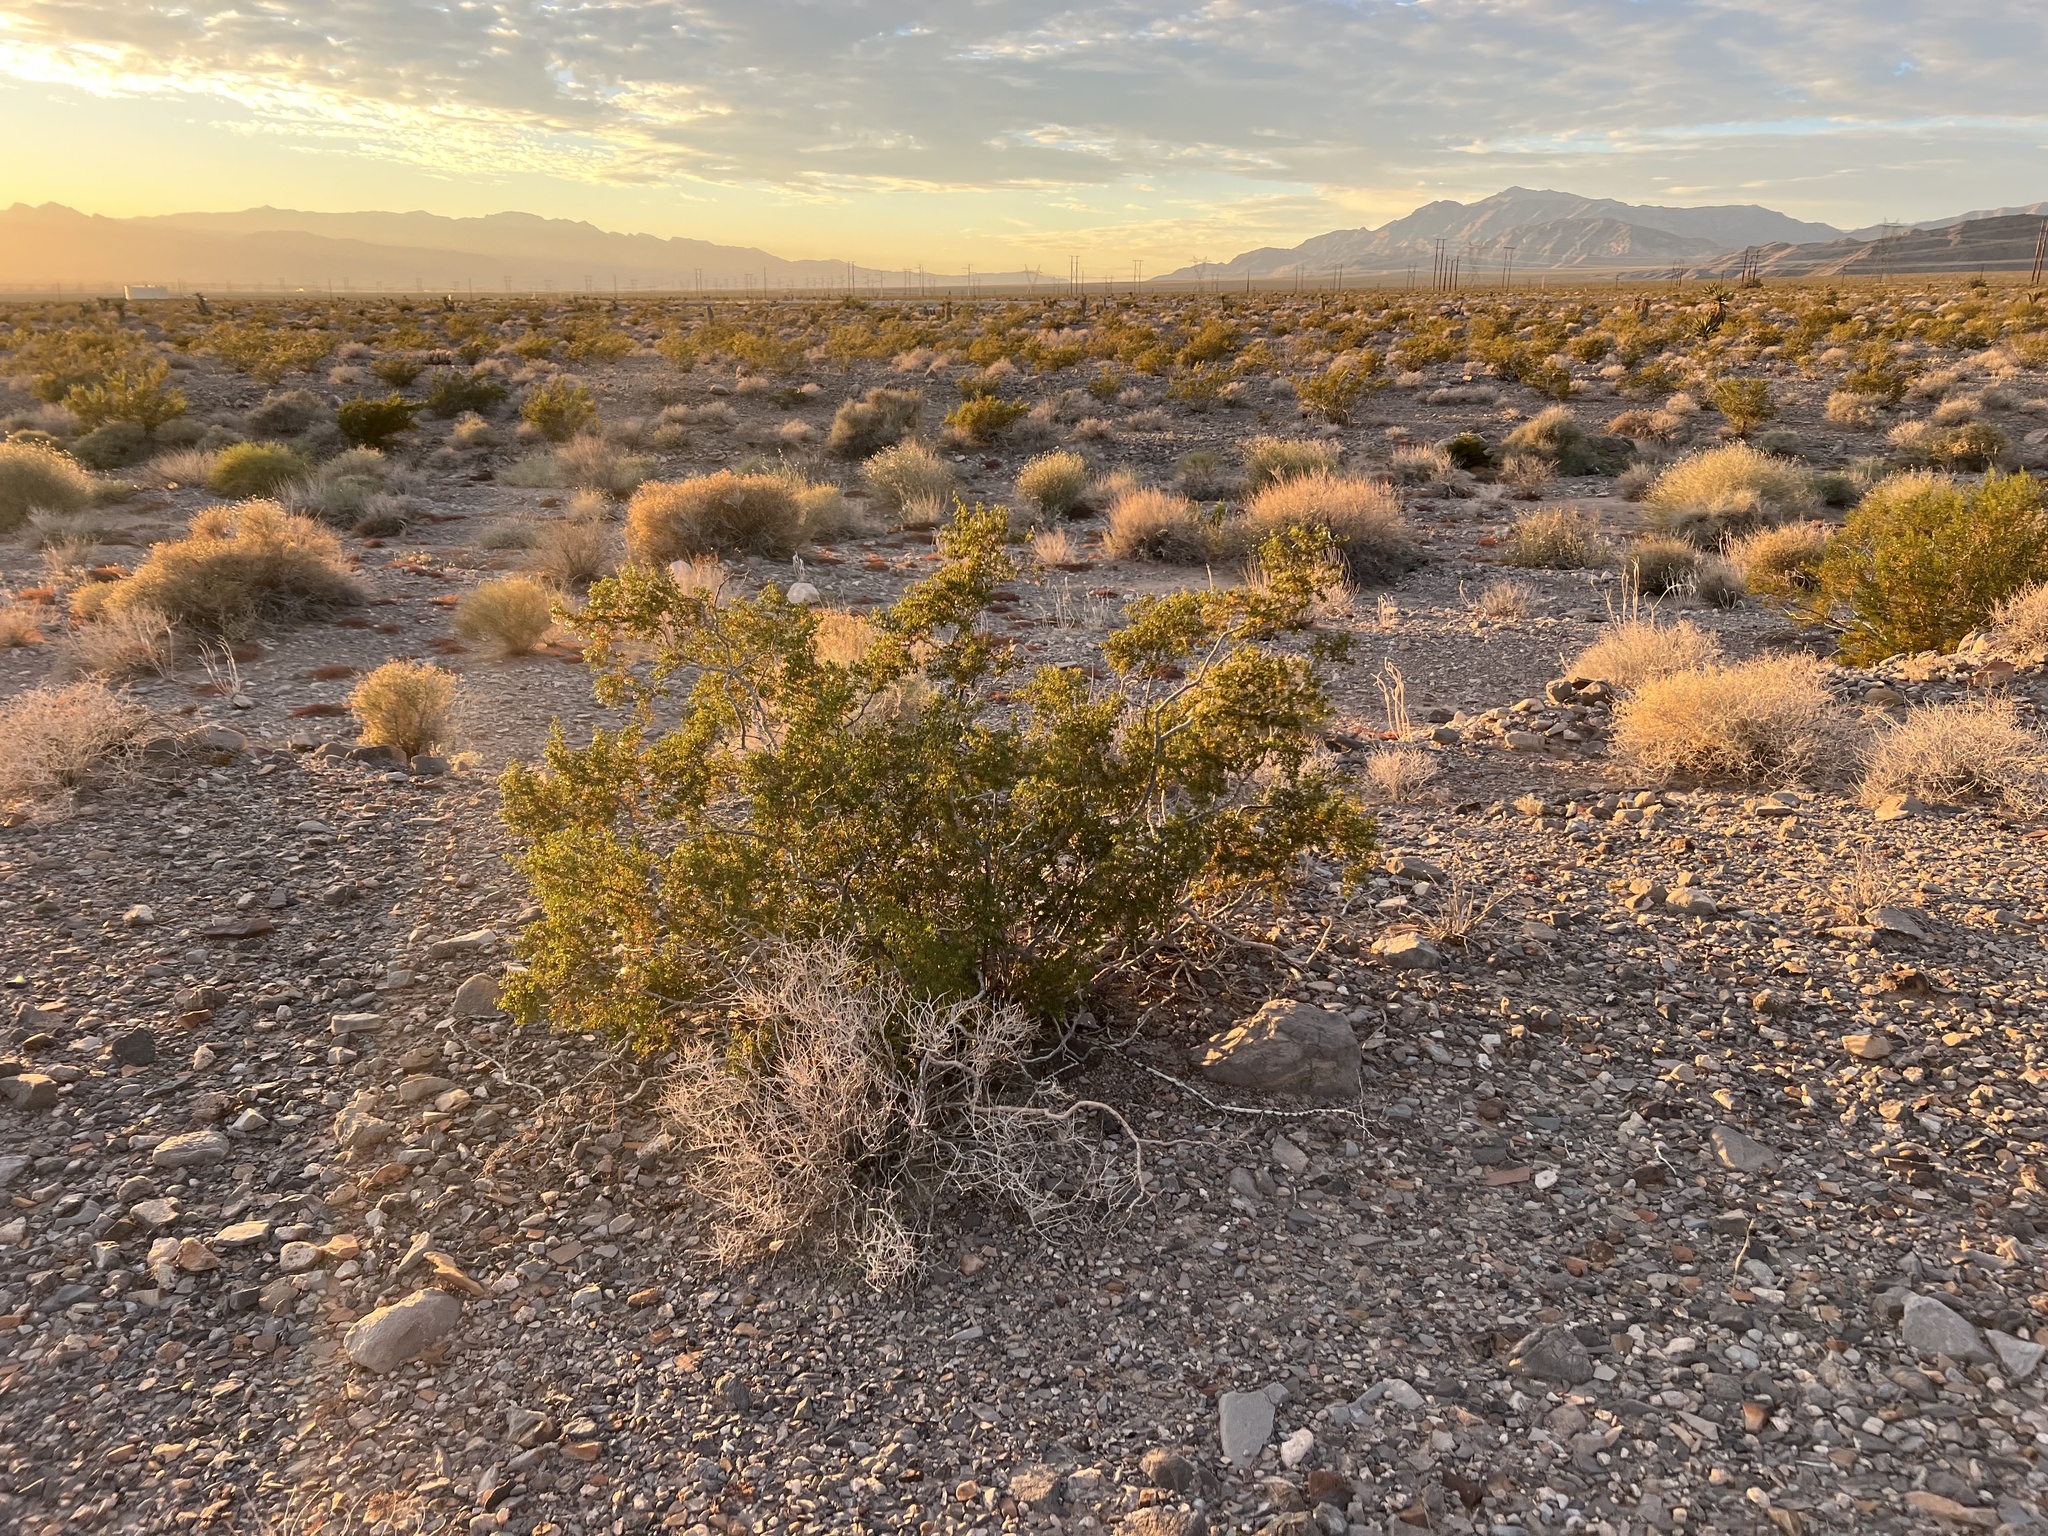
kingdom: Plantae
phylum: Tracheophyta
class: Magnoliopsida
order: Zygophyllales
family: Zygophyllaceae
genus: Larrea
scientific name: Larrea tridentata
